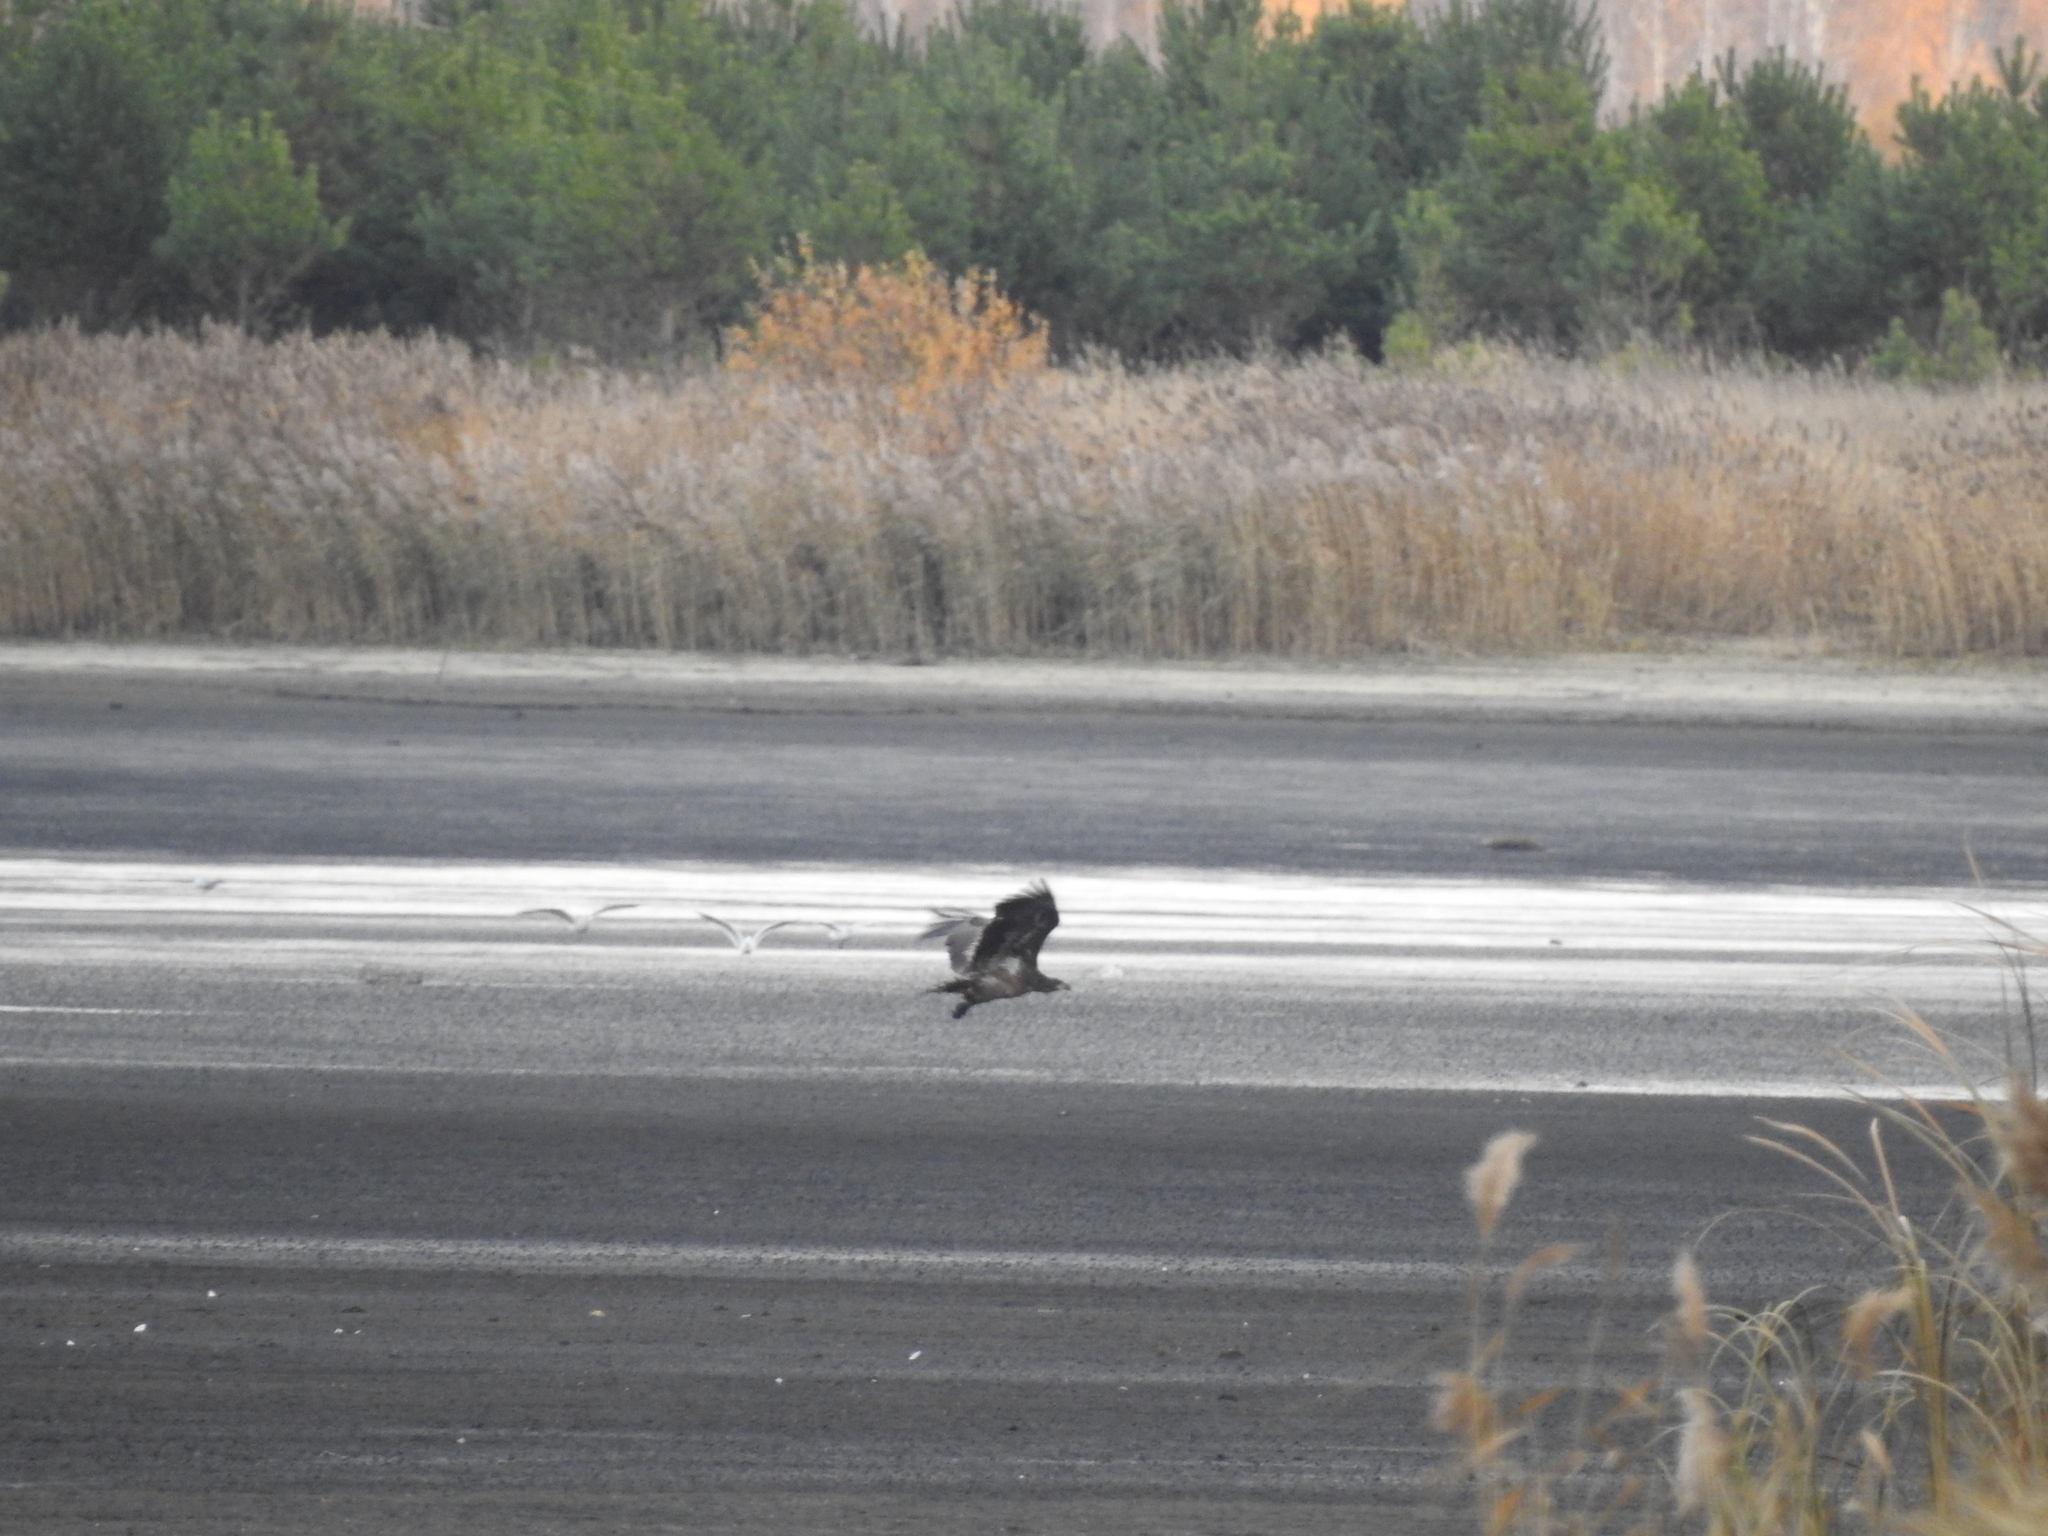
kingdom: Animalia
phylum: Chordata
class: Aves
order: Accipitriformes
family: Accipitridae
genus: Haliaeetus
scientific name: Haliaeetus albicilla
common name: White-tailed eagle
